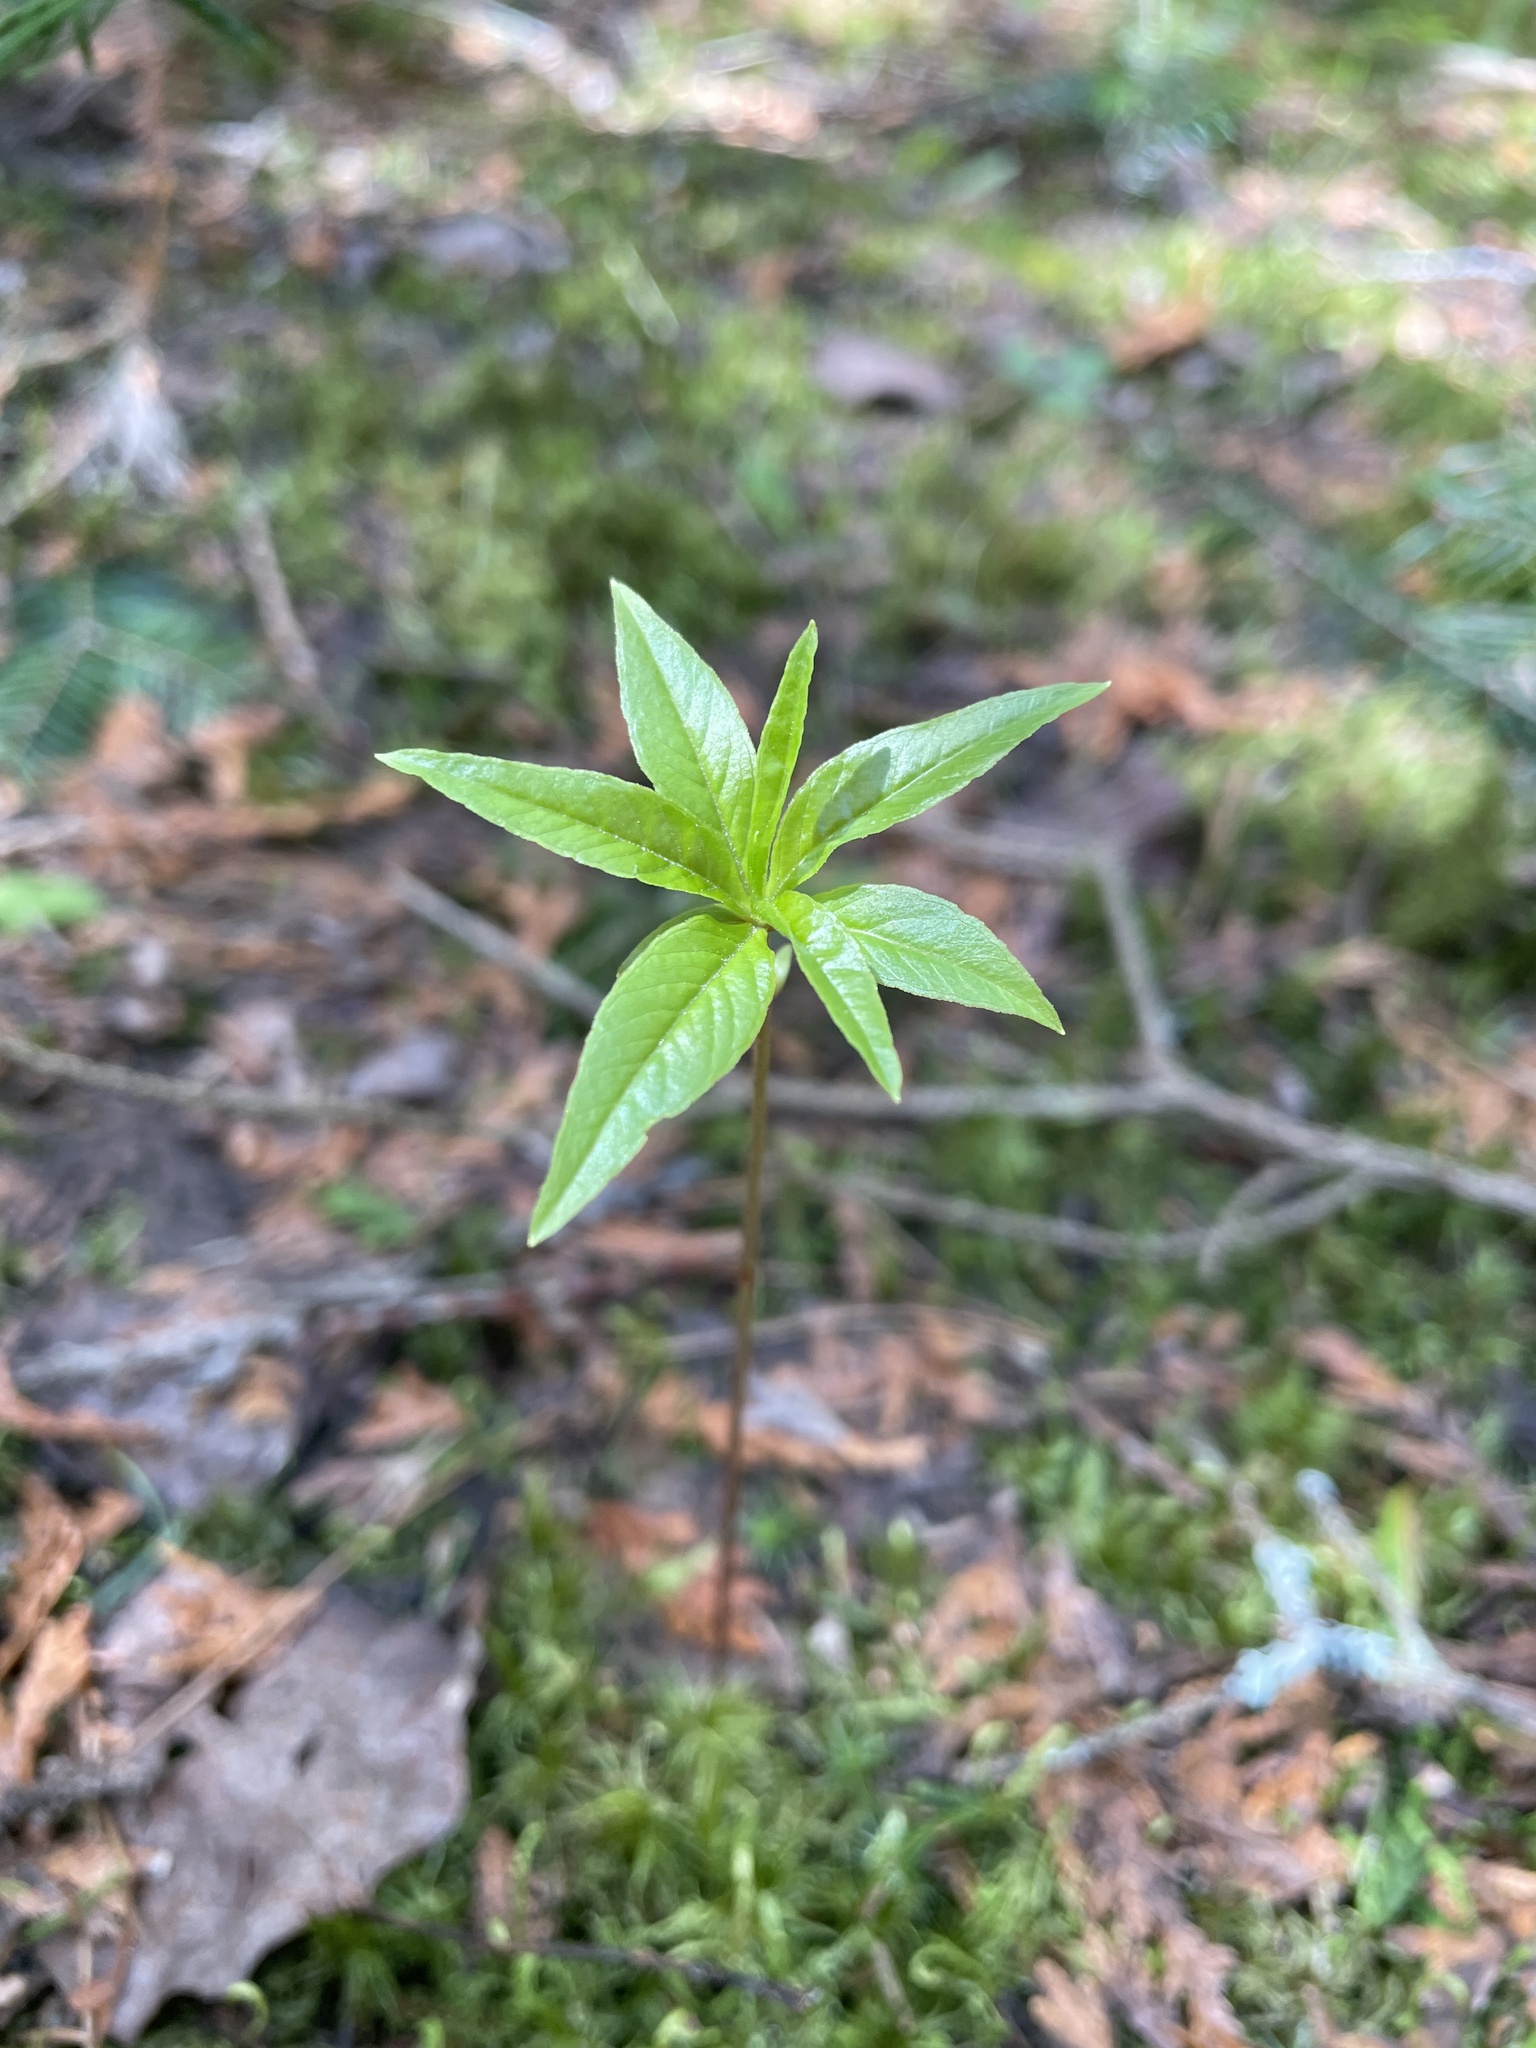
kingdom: Plantae
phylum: Tracheophyta
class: Magnoliopsida
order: Ericales
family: Primulaceae
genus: Lysimachia
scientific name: Lysimachia borealis
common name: American starflower
